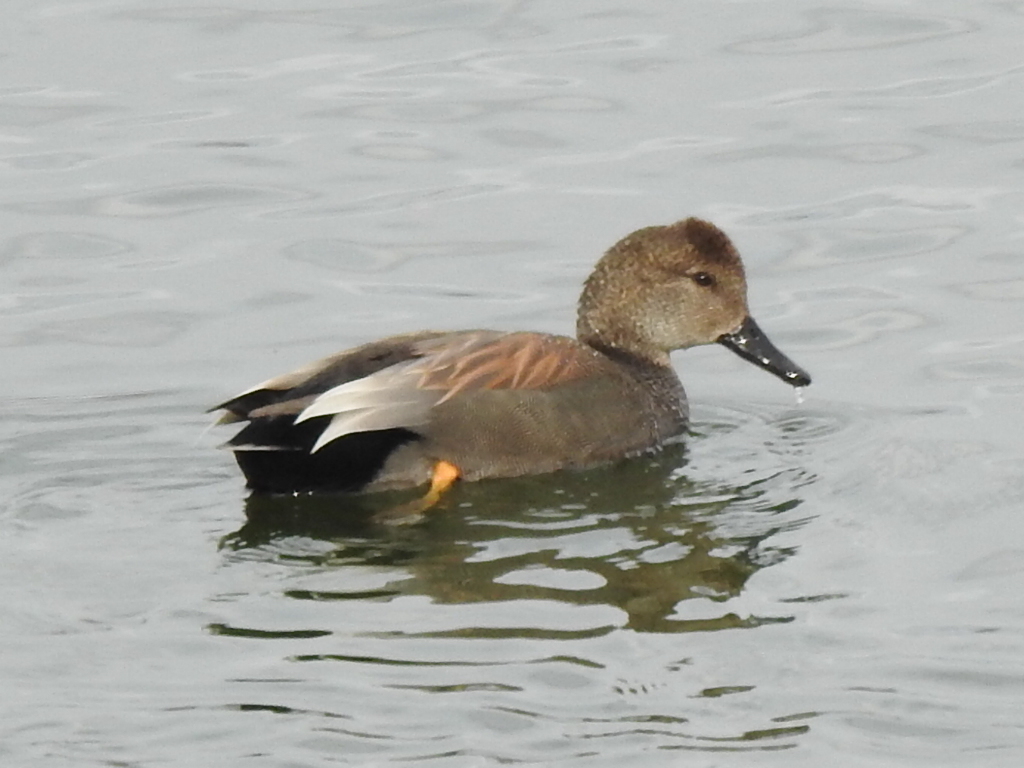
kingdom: Animalia
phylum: Chordata
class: Aves
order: Anseriformes
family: Anatidae
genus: Mareca
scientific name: Mareca strepera
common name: Gadwall
